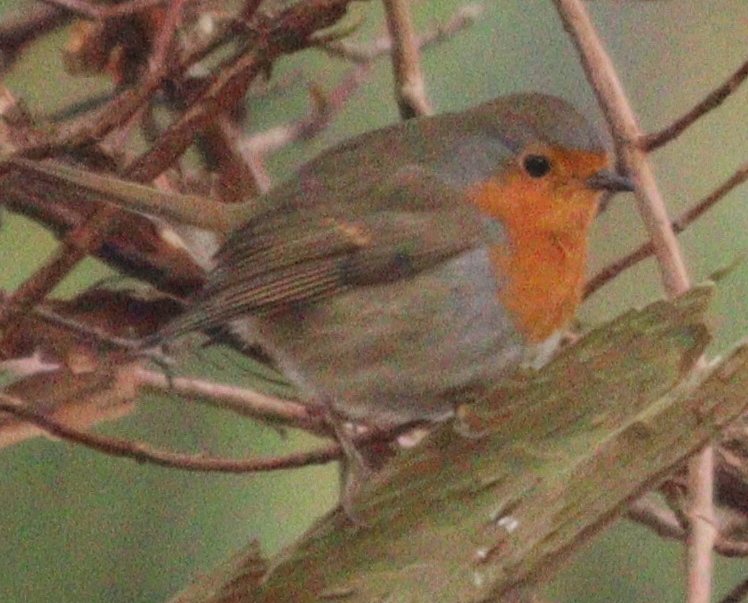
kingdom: Animalia
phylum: Chordata
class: Aves
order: Passeriformes
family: Muscicapidae
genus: Erithacus
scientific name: Erithacus rubecula
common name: European robin
